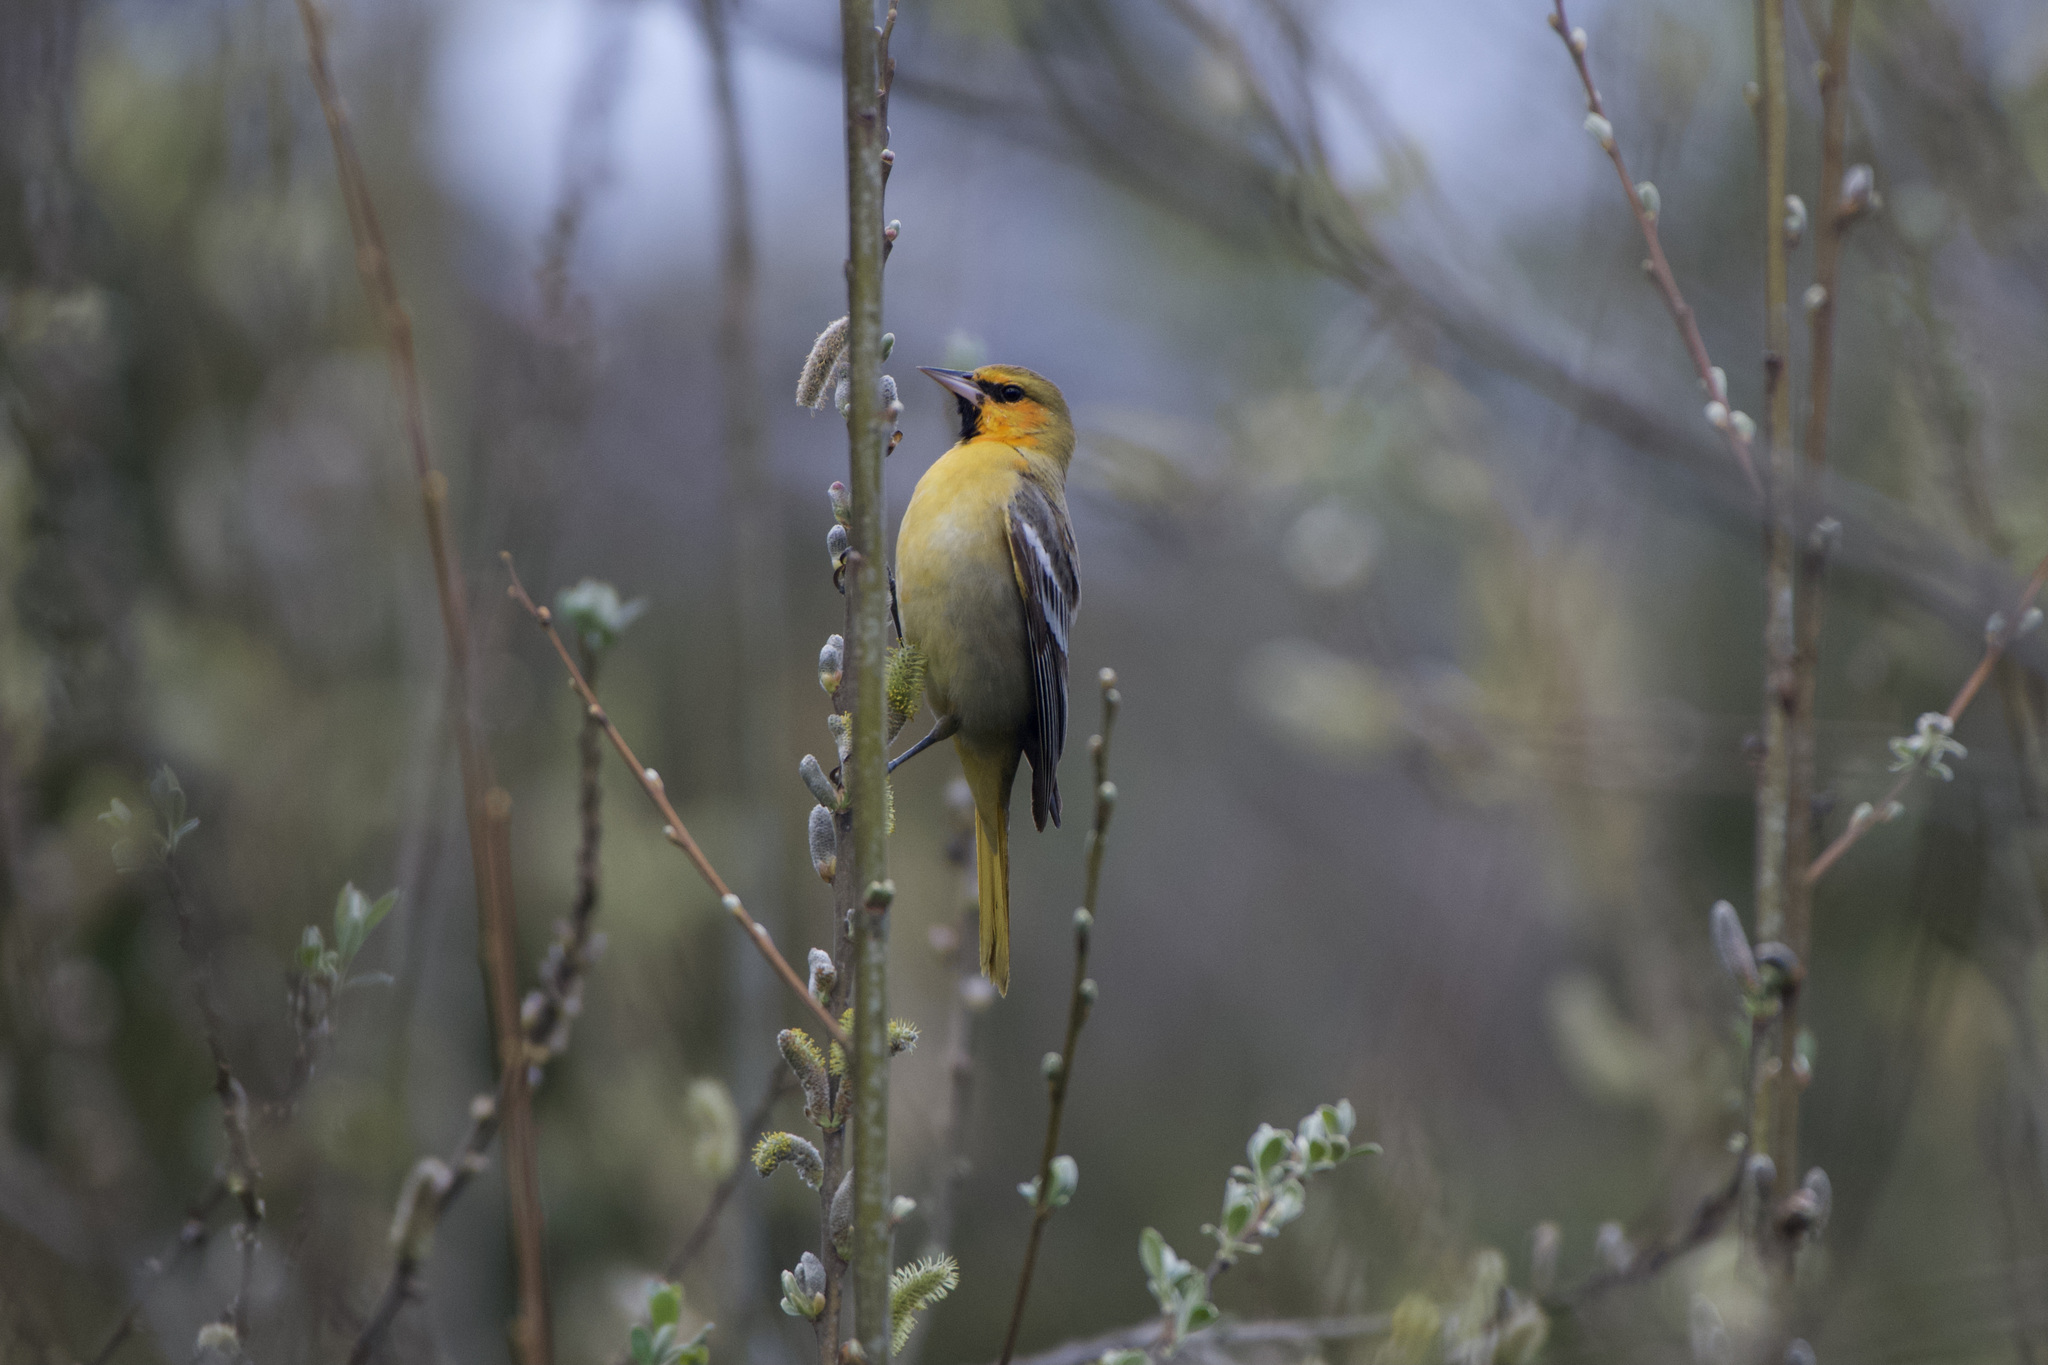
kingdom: Animalia
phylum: Chordata
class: Aves
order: Passeriformes
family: Icteridae
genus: Icterus
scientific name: Icterus bullockii
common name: Bullock's oriole
